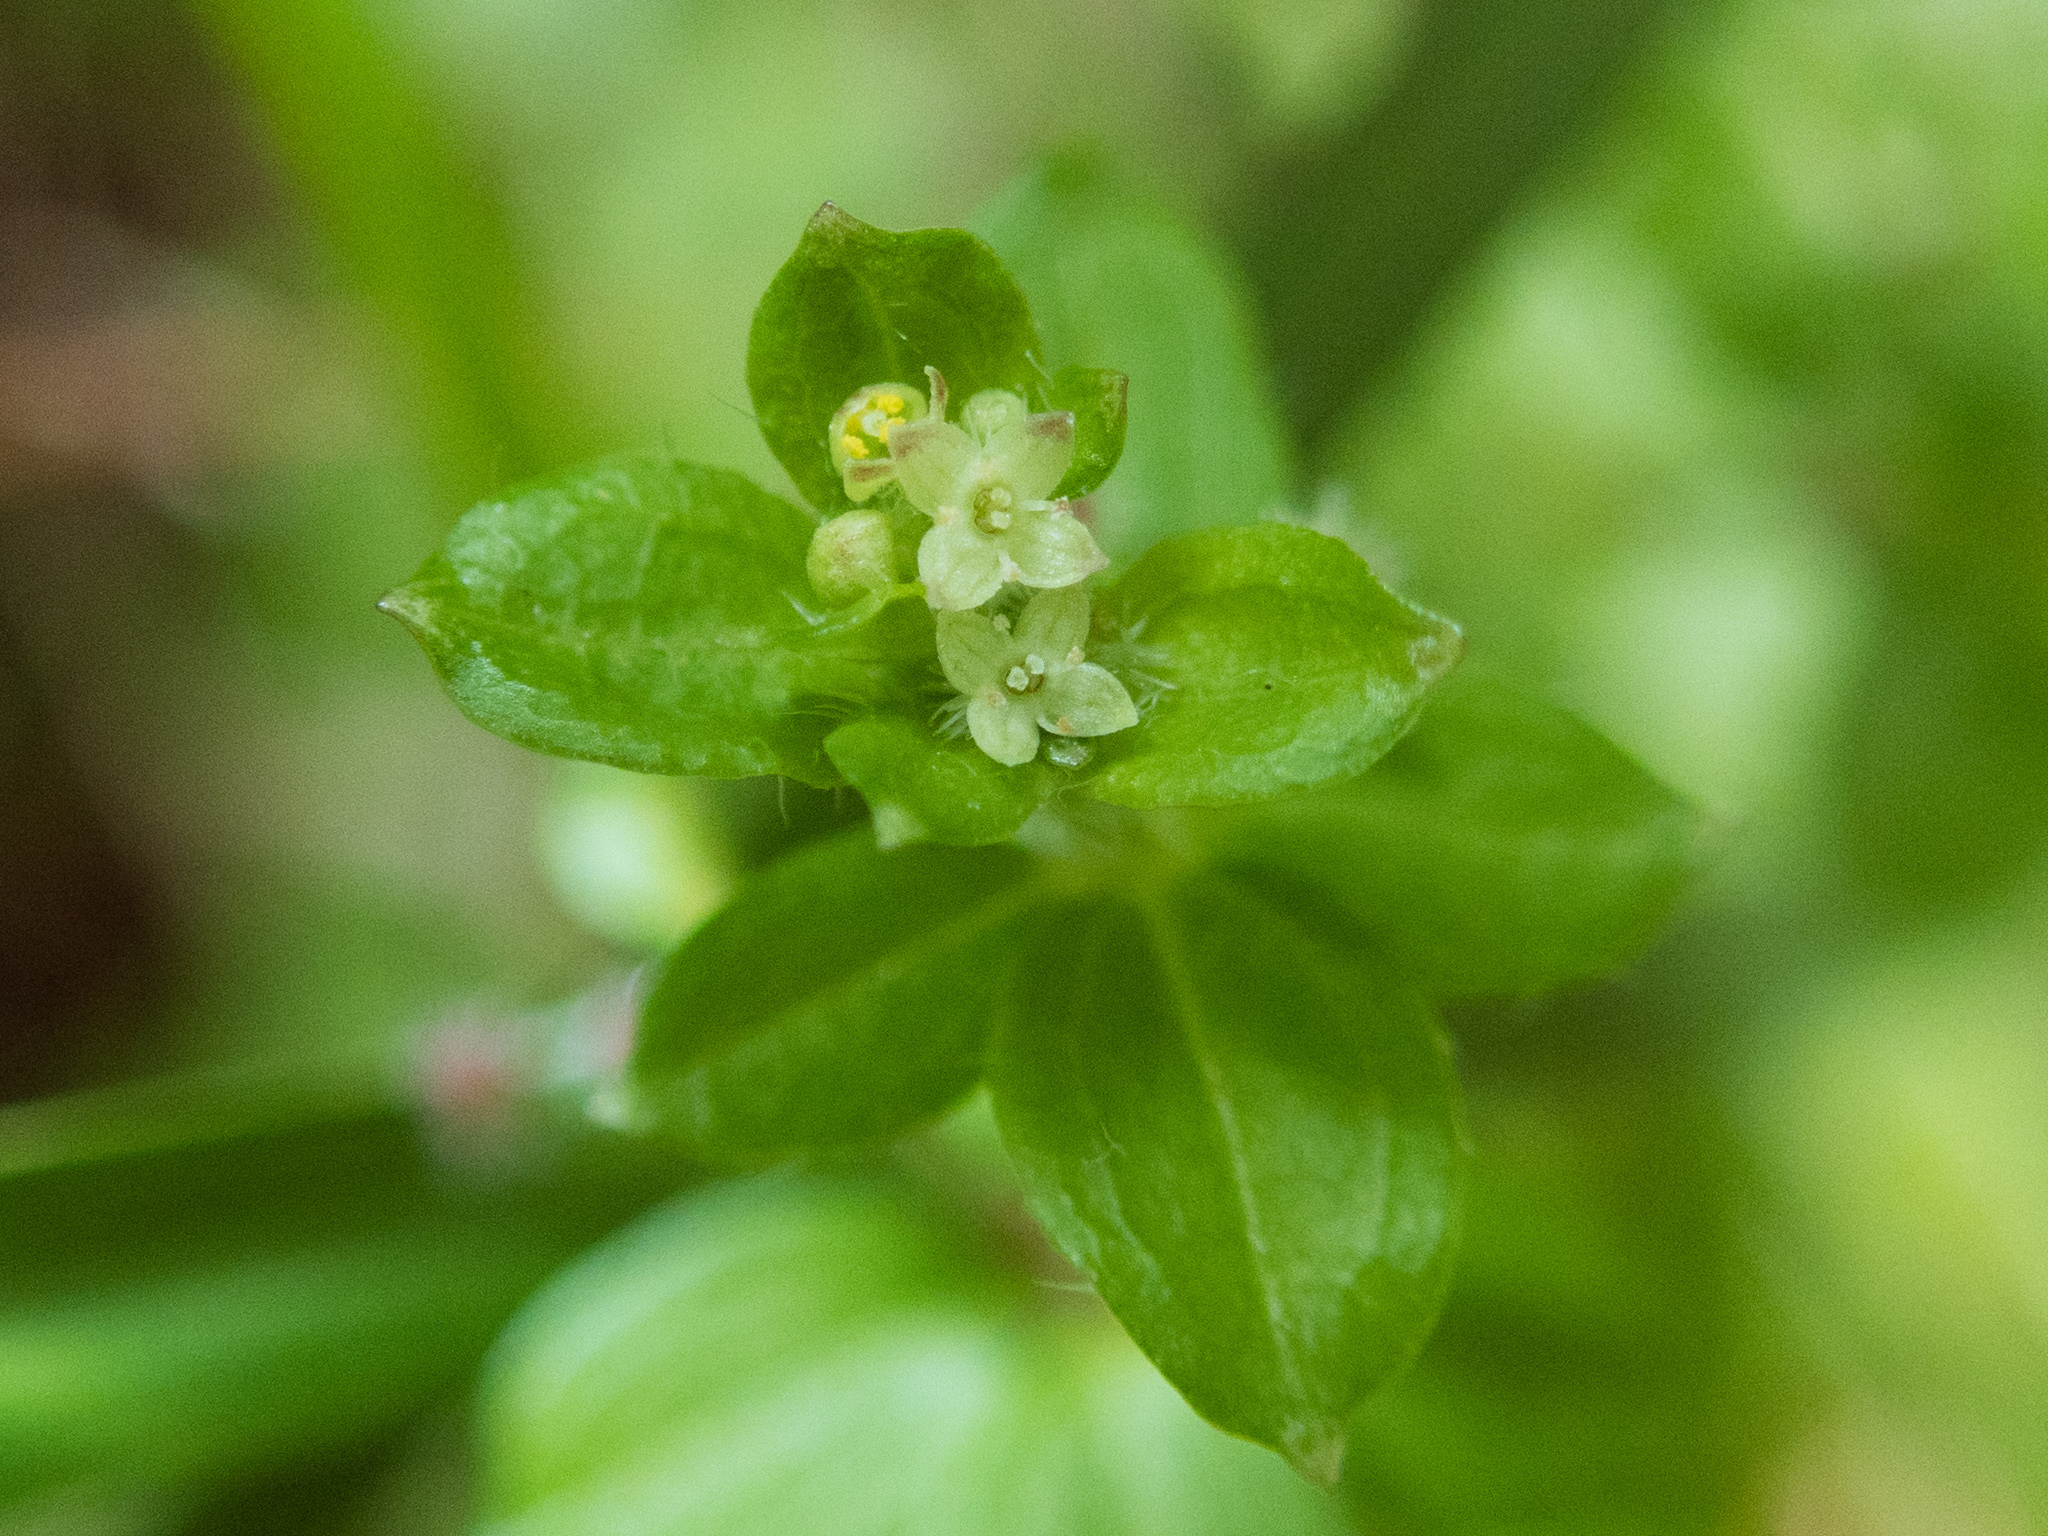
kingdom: Plantae
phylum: Tracheophyta
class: Magnoliopsida
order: Gentianales
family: Rubiaceae
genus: Galium
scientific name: Galium formosense
